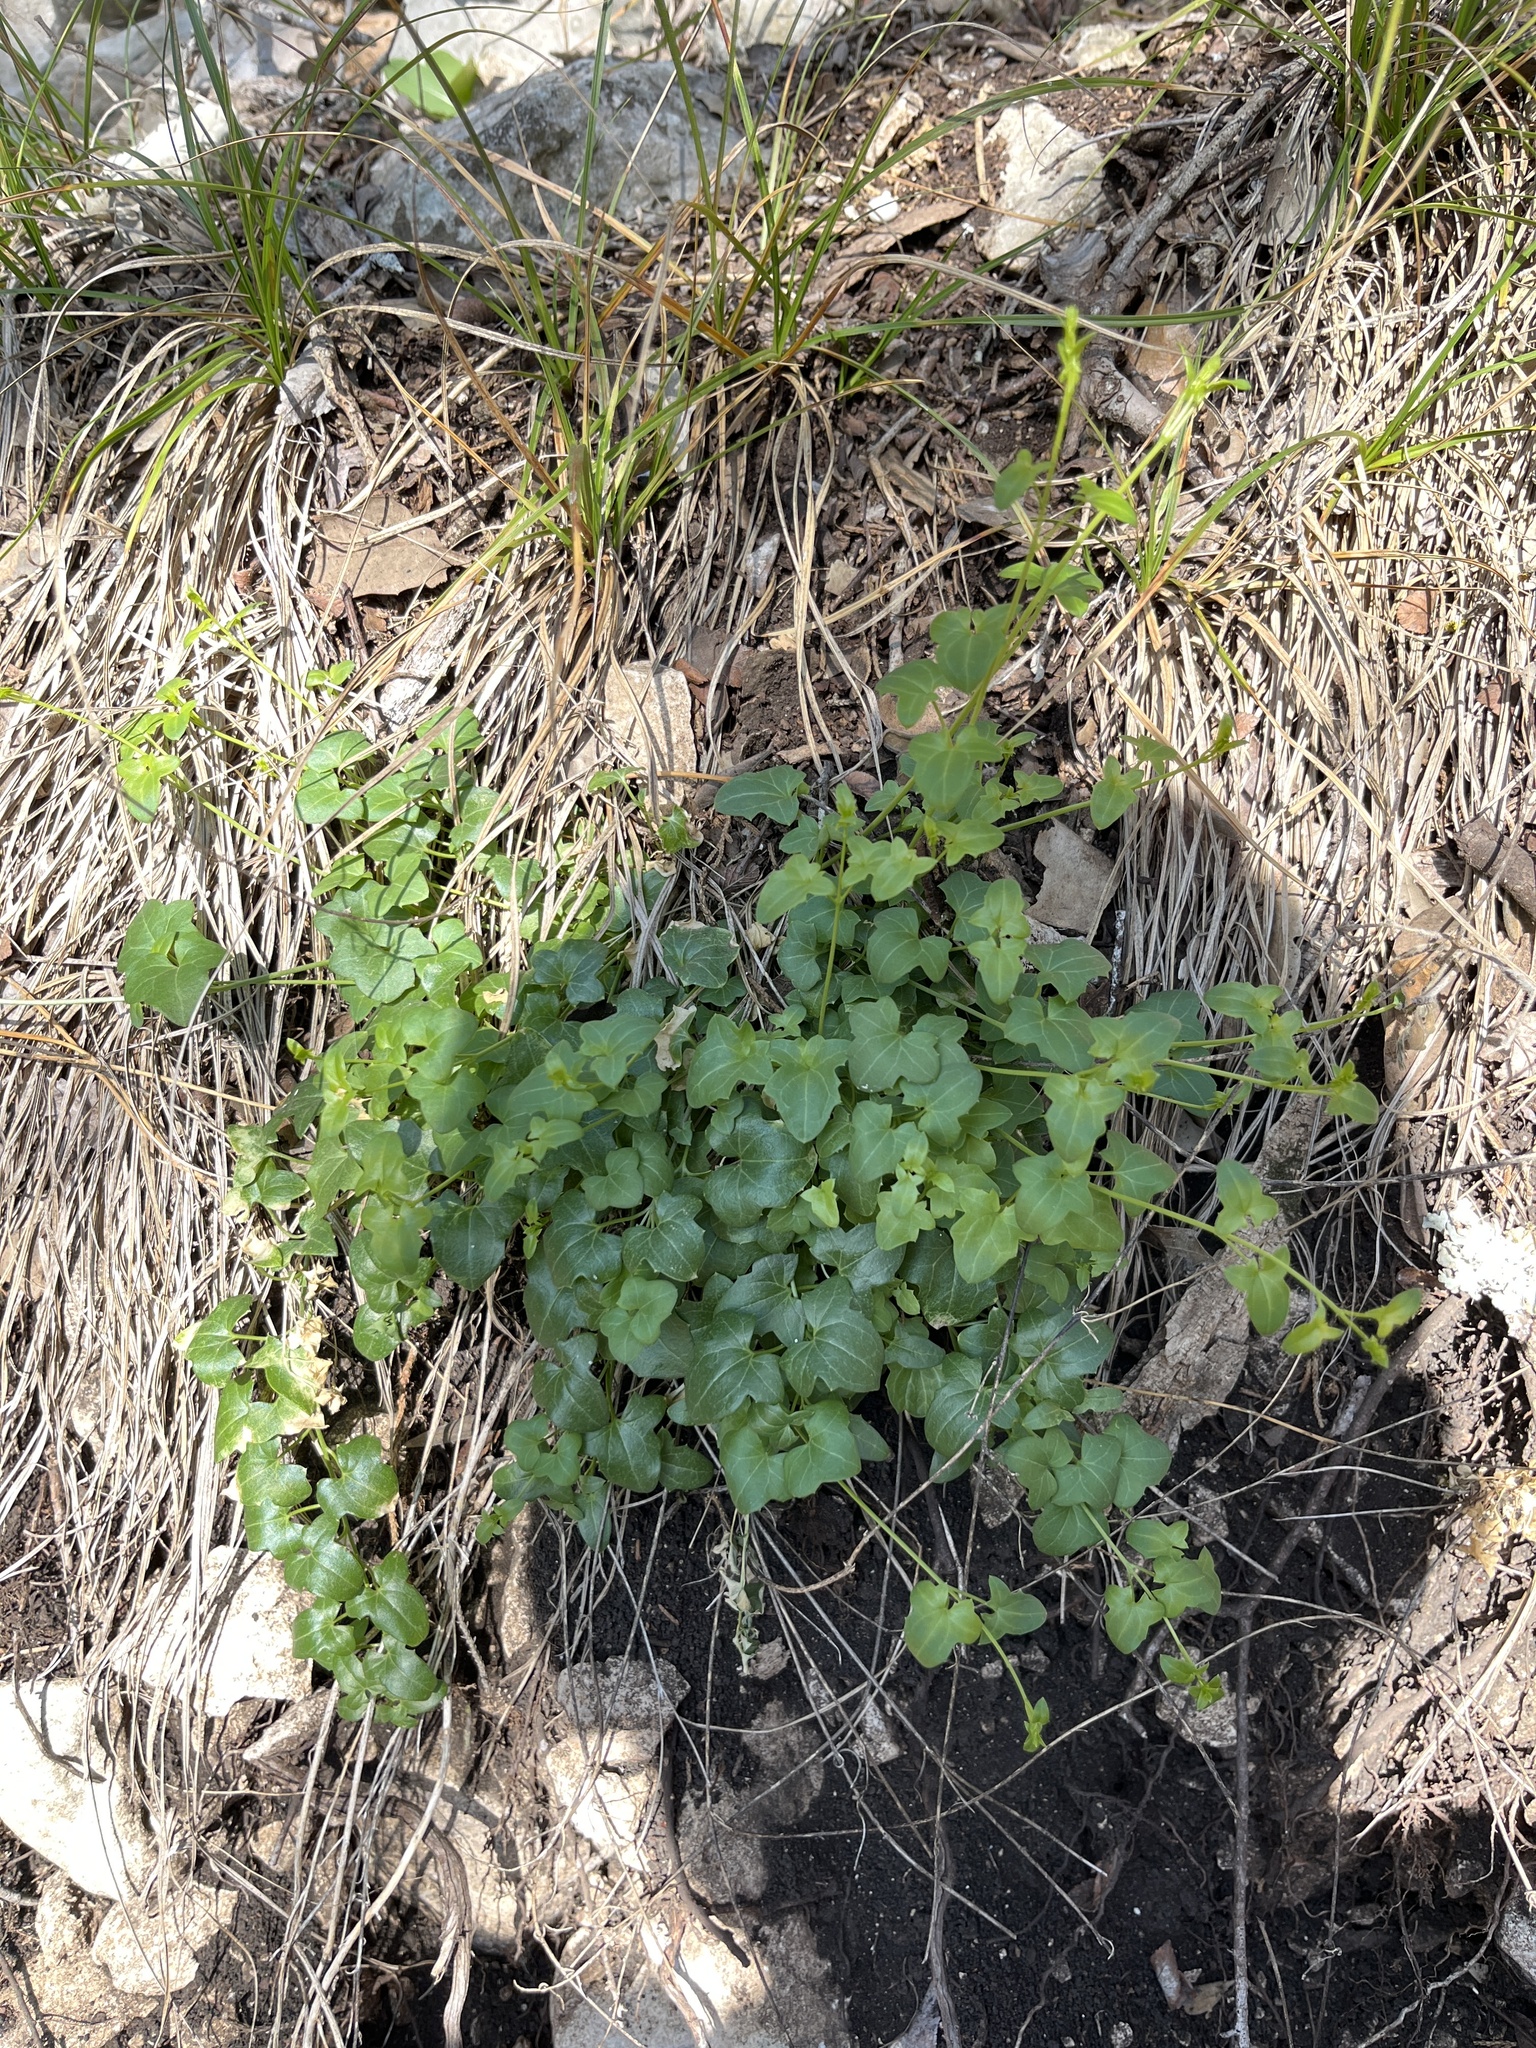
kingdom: Plantae
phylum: Tracheophyta
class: Magnoliopsida
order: Lamiales
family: Plantaginaceae
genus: Maurandella
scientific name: Maurandella antirrhiniflora
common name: Violet twining-snapdragon
